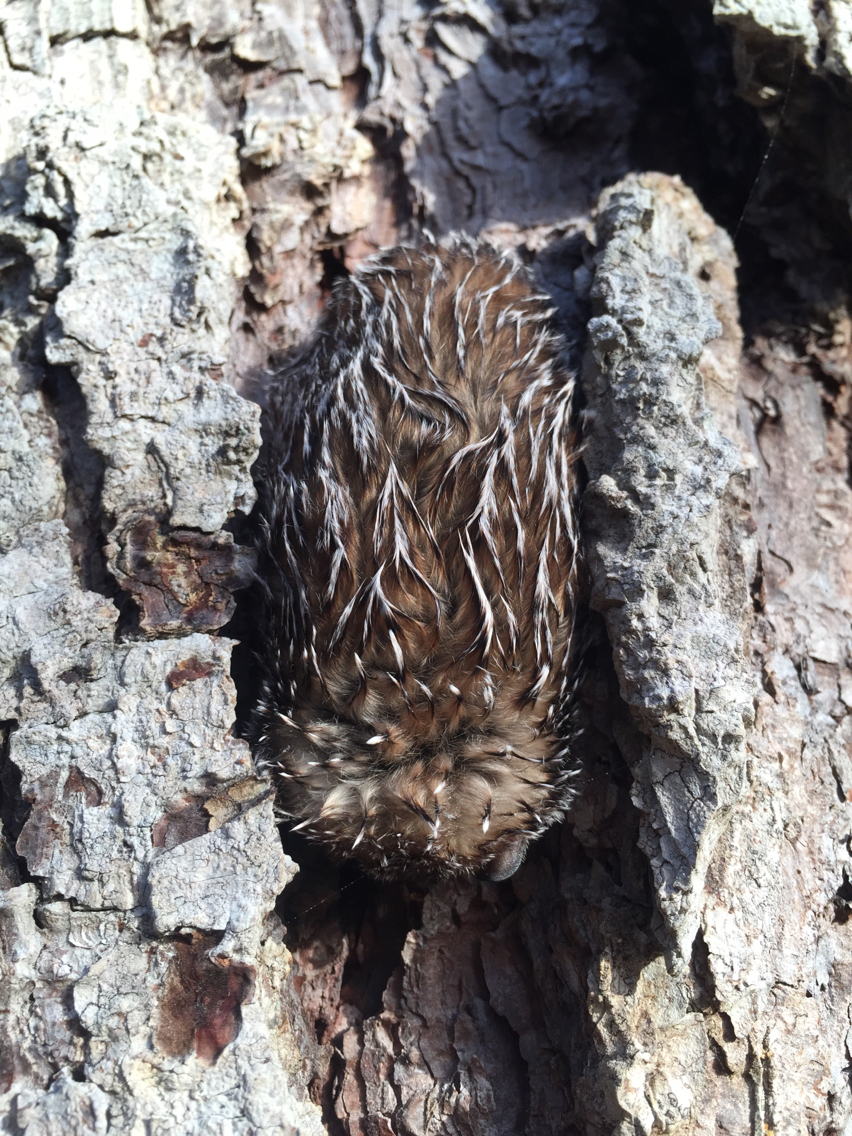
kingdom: Animalia
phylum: Chordata
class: Mammalia
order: Chiroptera
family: Vespertilionidae
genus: Aeorestes
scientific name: Aeorestes cinereus
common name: North american hoary bat
